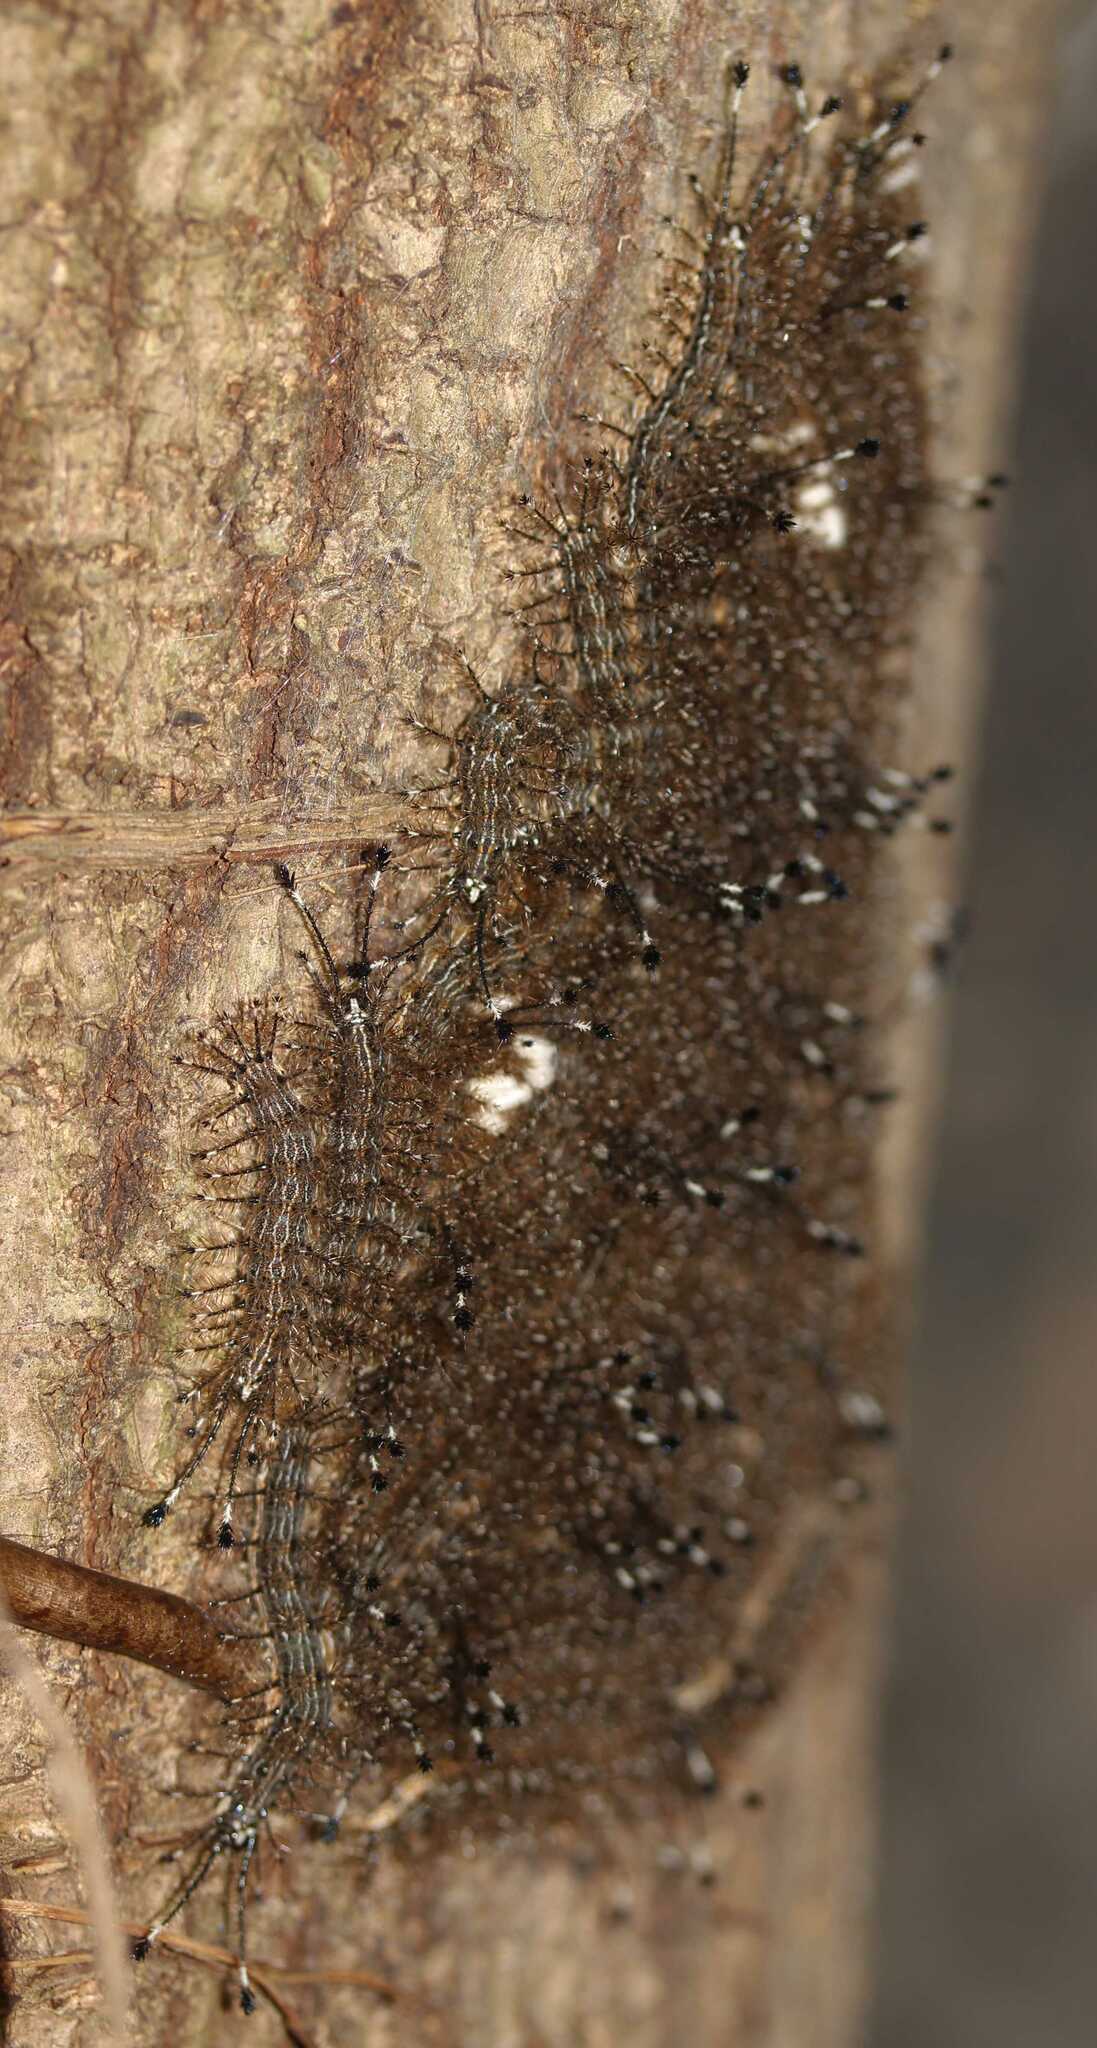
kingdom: Animalia
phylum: Arthropoda
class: Insecta
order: Hymenoptera
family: Braconidae
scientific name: Braconidae
